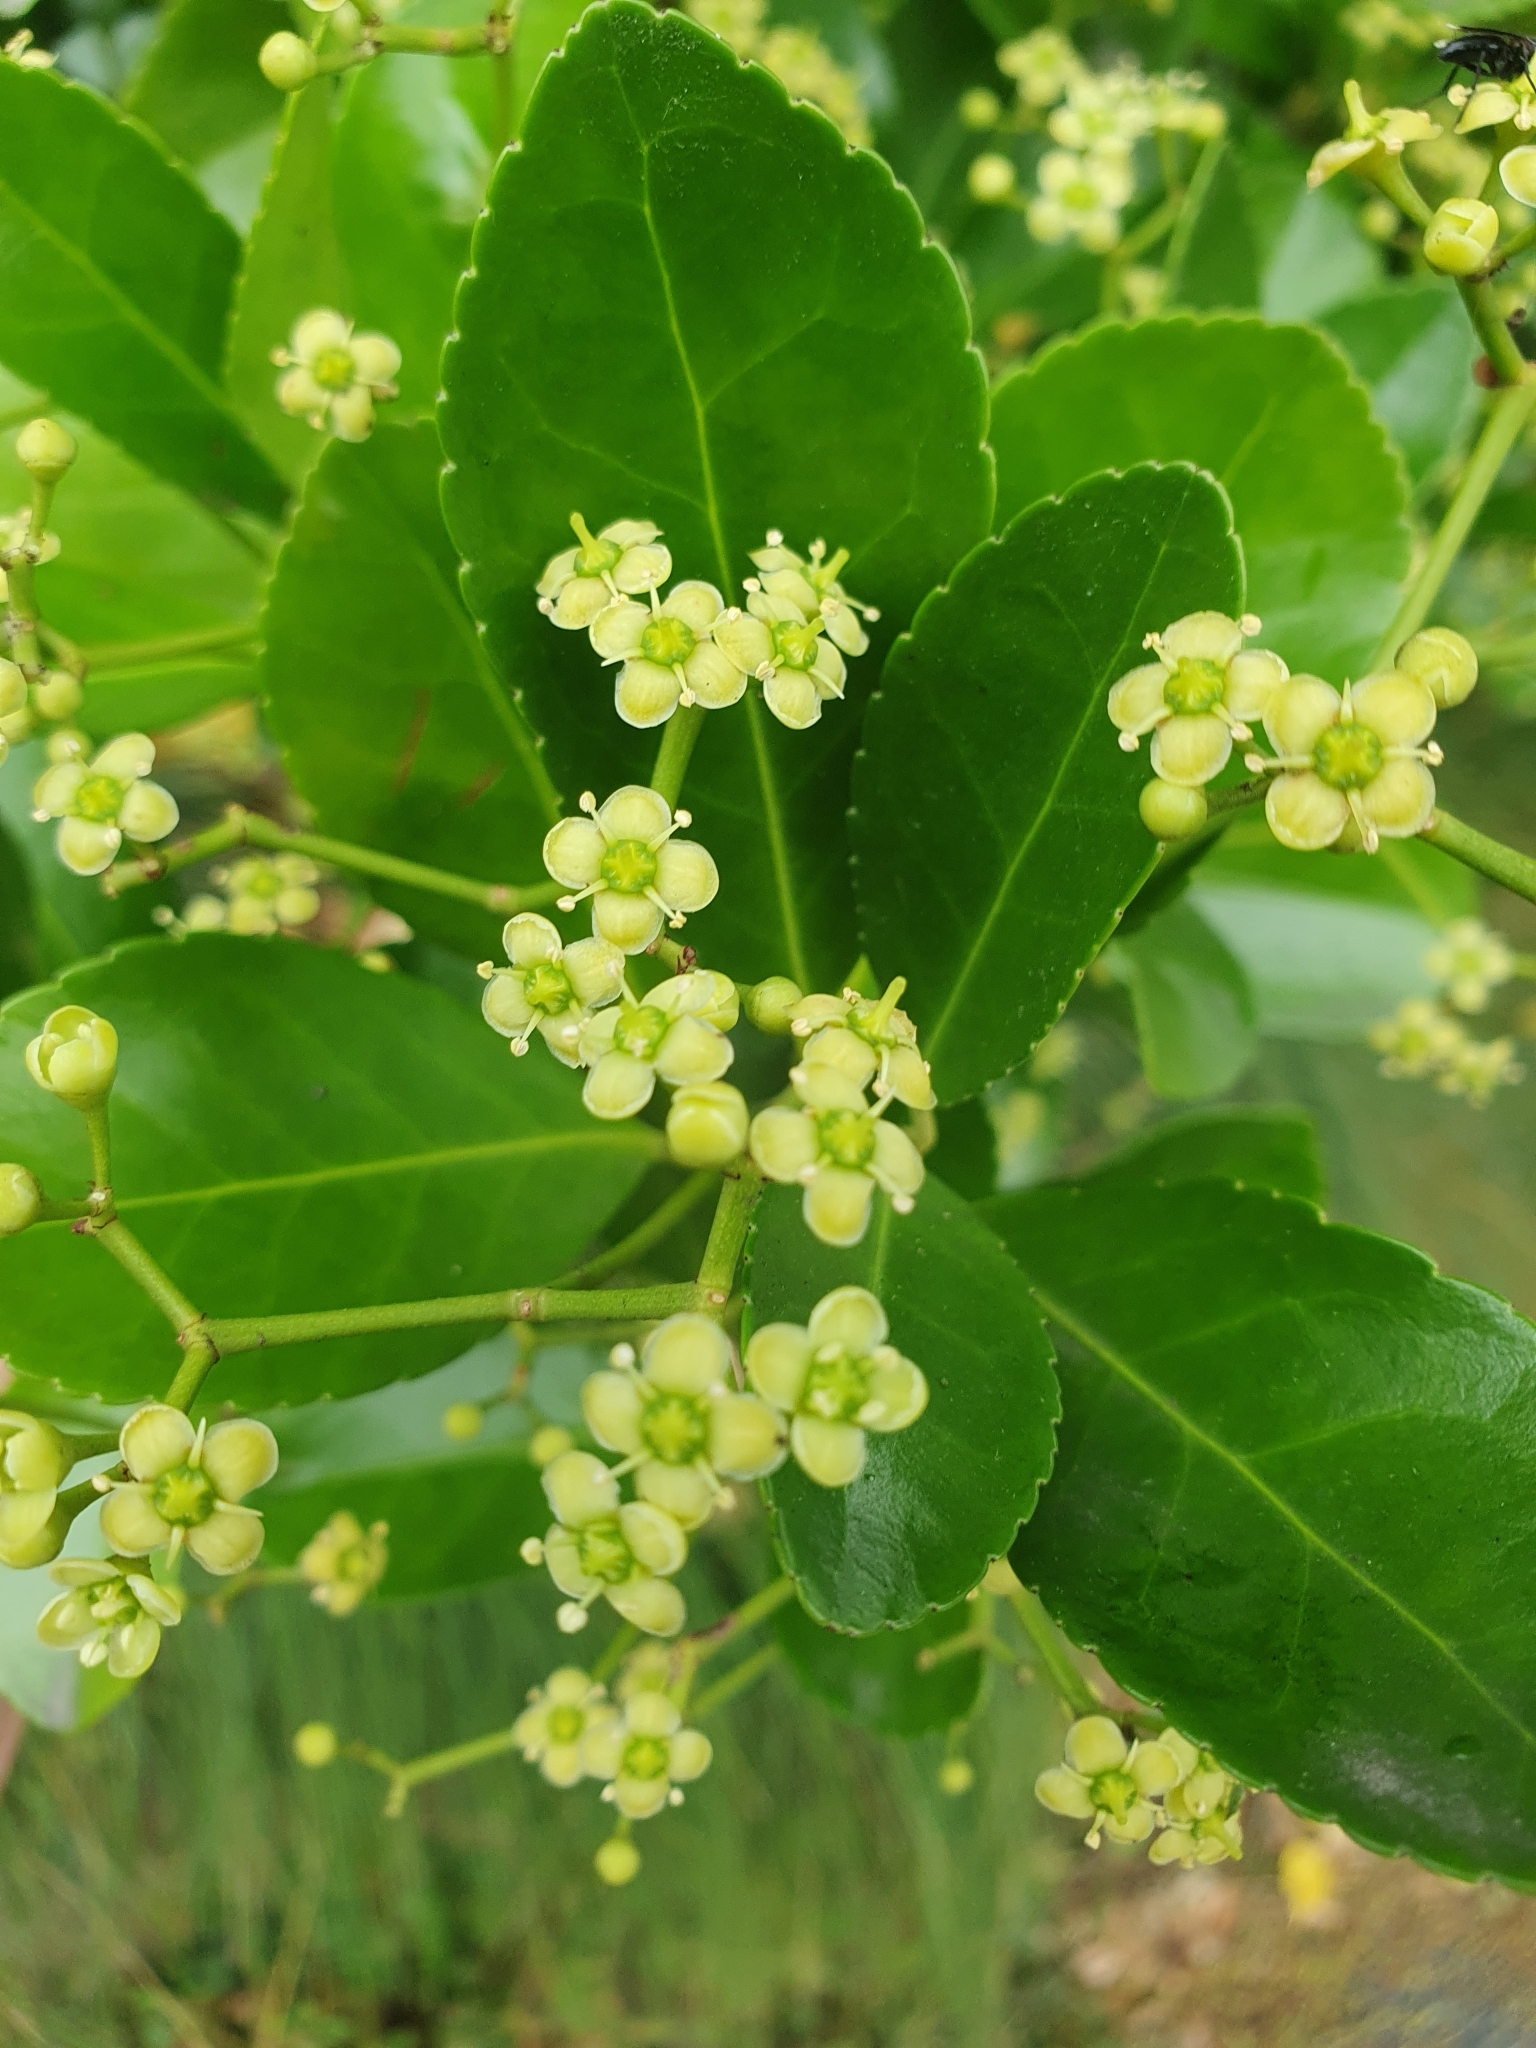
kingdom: Plantae
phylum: Tracheophyta
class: Magnoliopsida
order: Celastrales
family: Celastraceae
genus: Euonymus
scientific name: Euonymus japonicus
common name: Japanese spindletree
